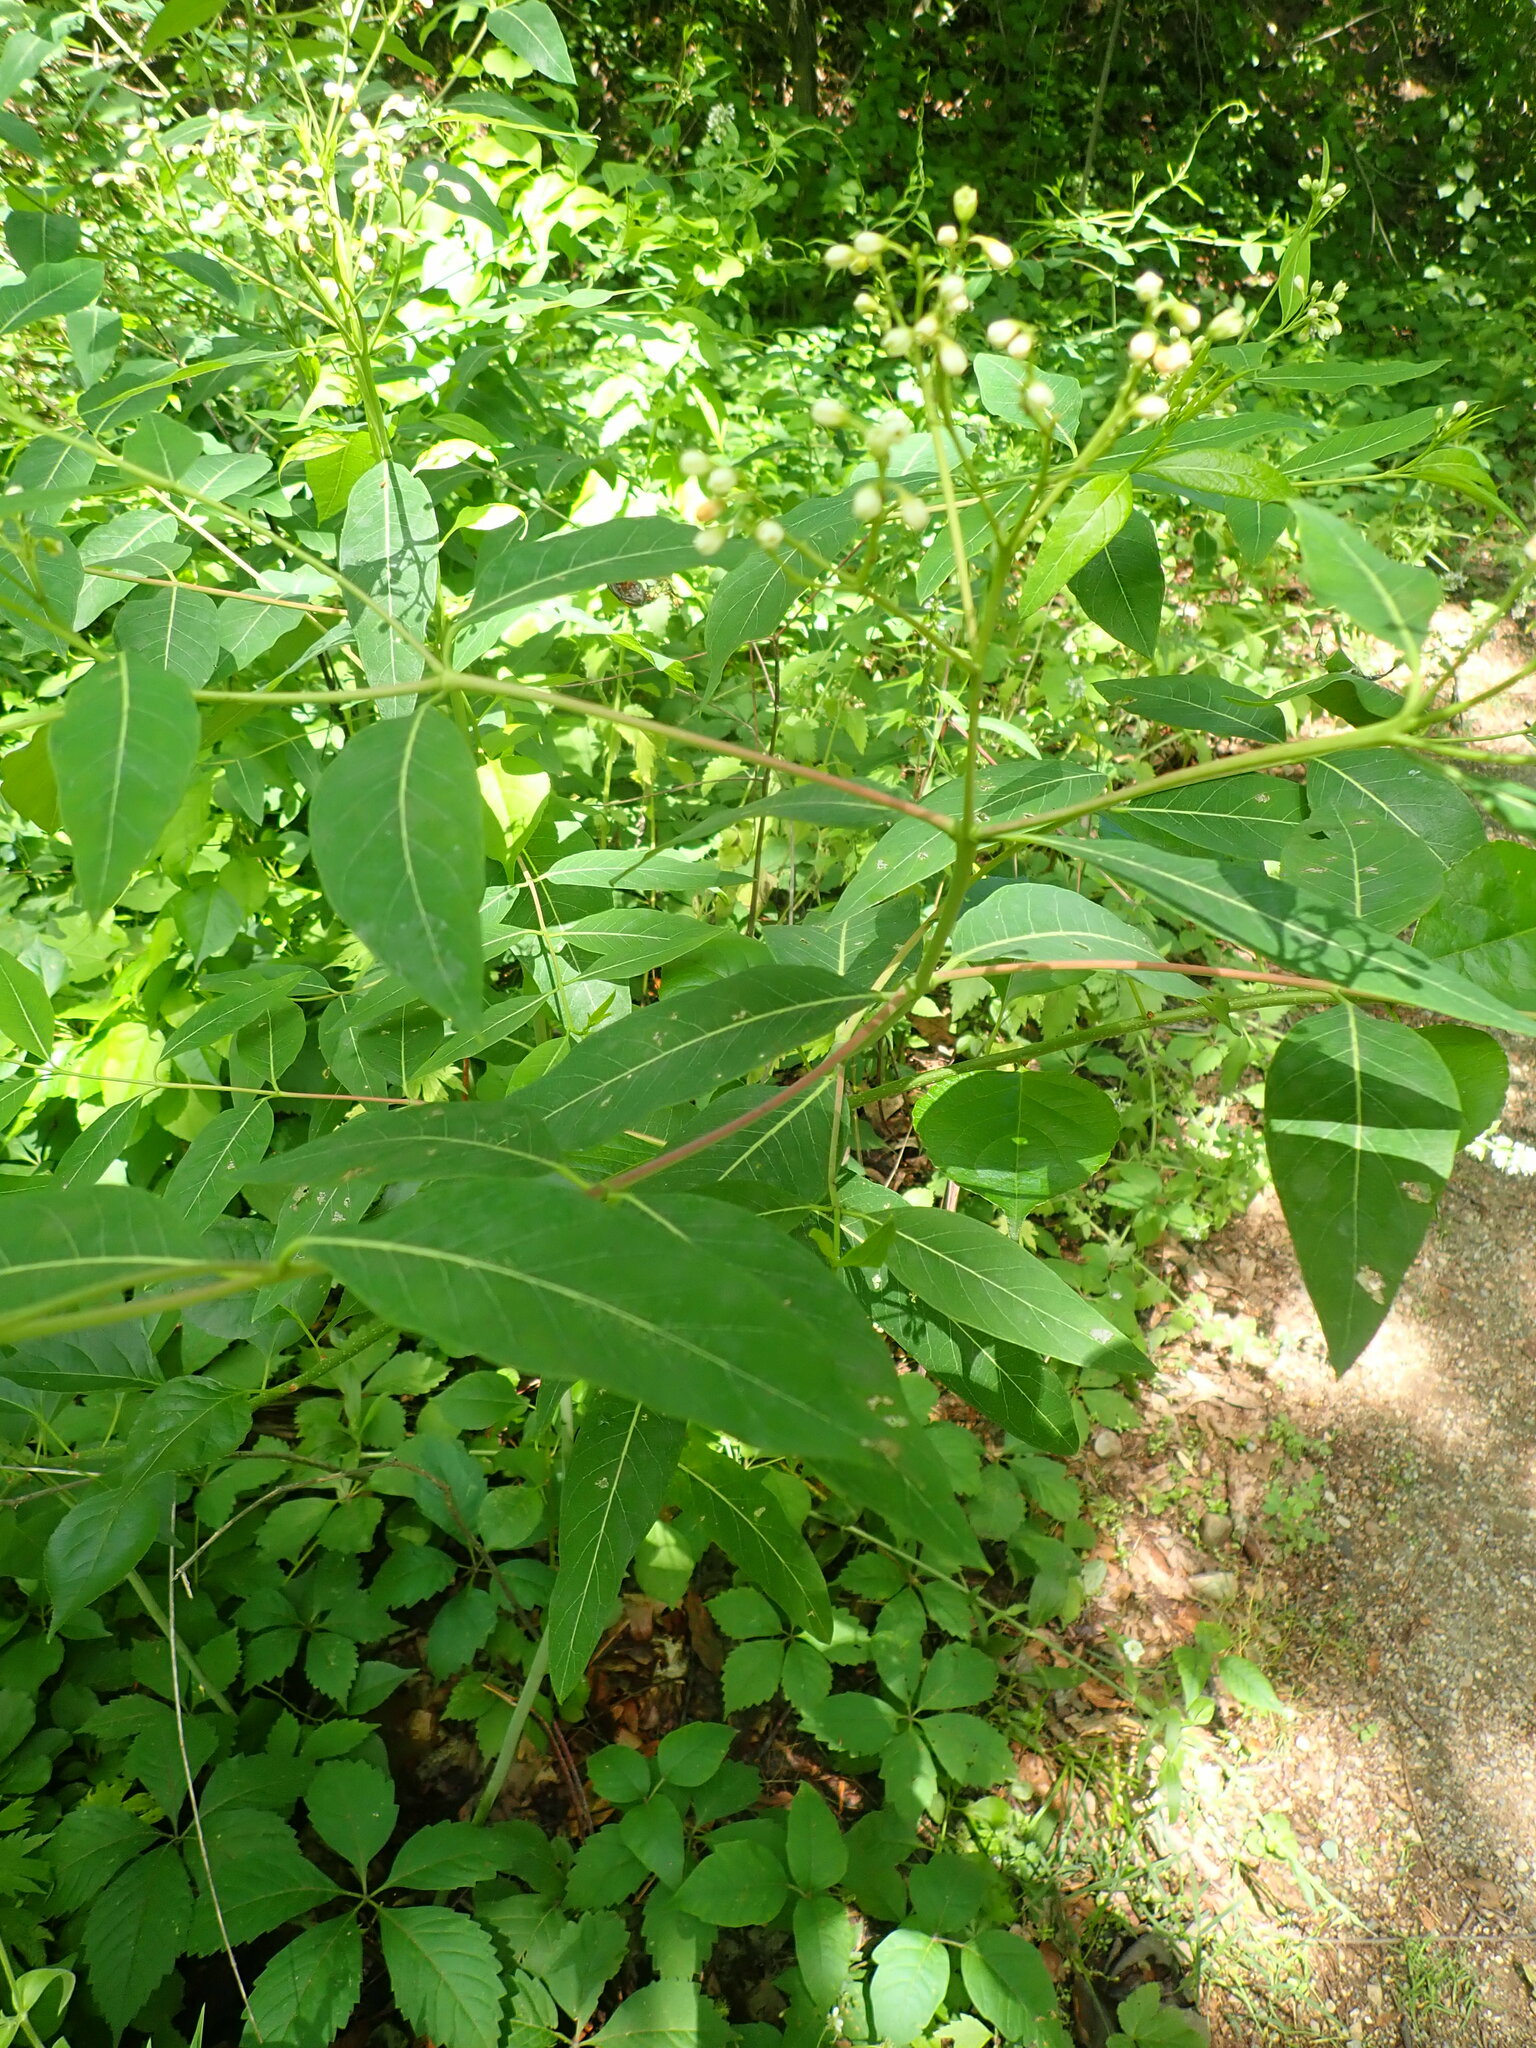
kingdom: Plantae
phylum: Tracheophyta
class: Magnoliopsida
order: Gentianales
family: Apocynaceae
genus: Apocynum
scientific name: Apocynum cannabinum
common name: Hemp dogbane
